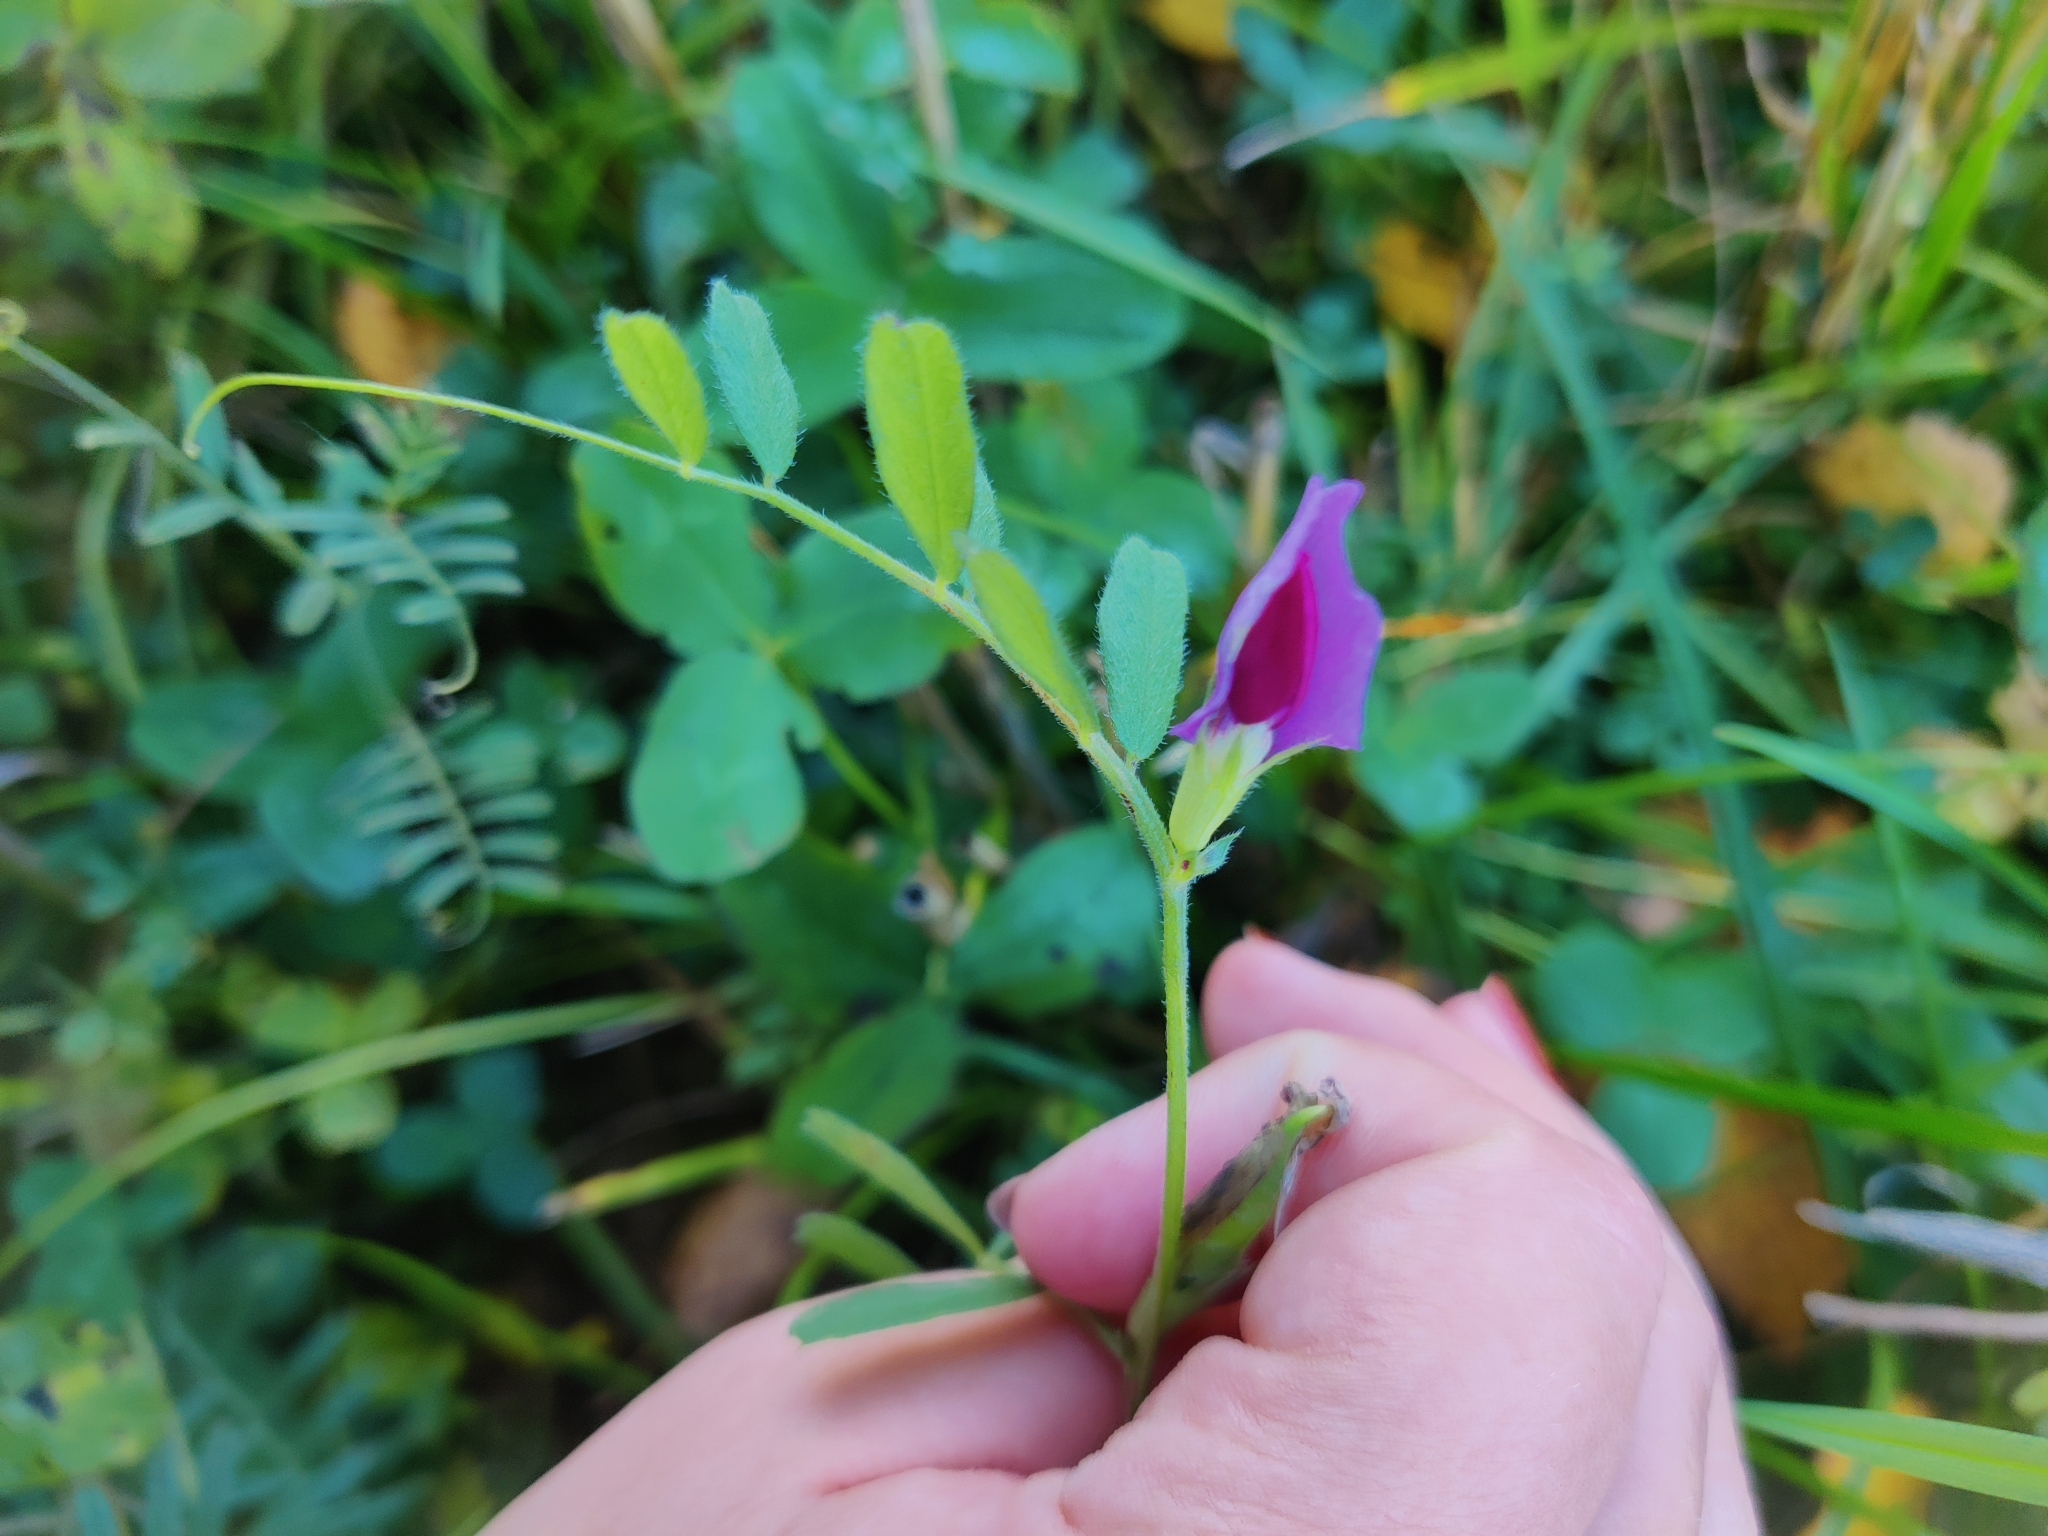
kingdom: Plantae
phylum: Tracheophyta
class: Magnoliopsida
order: Fabales
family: Fabaceae
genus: Vicia
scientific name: Vicia sativa
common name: Garden vetch
